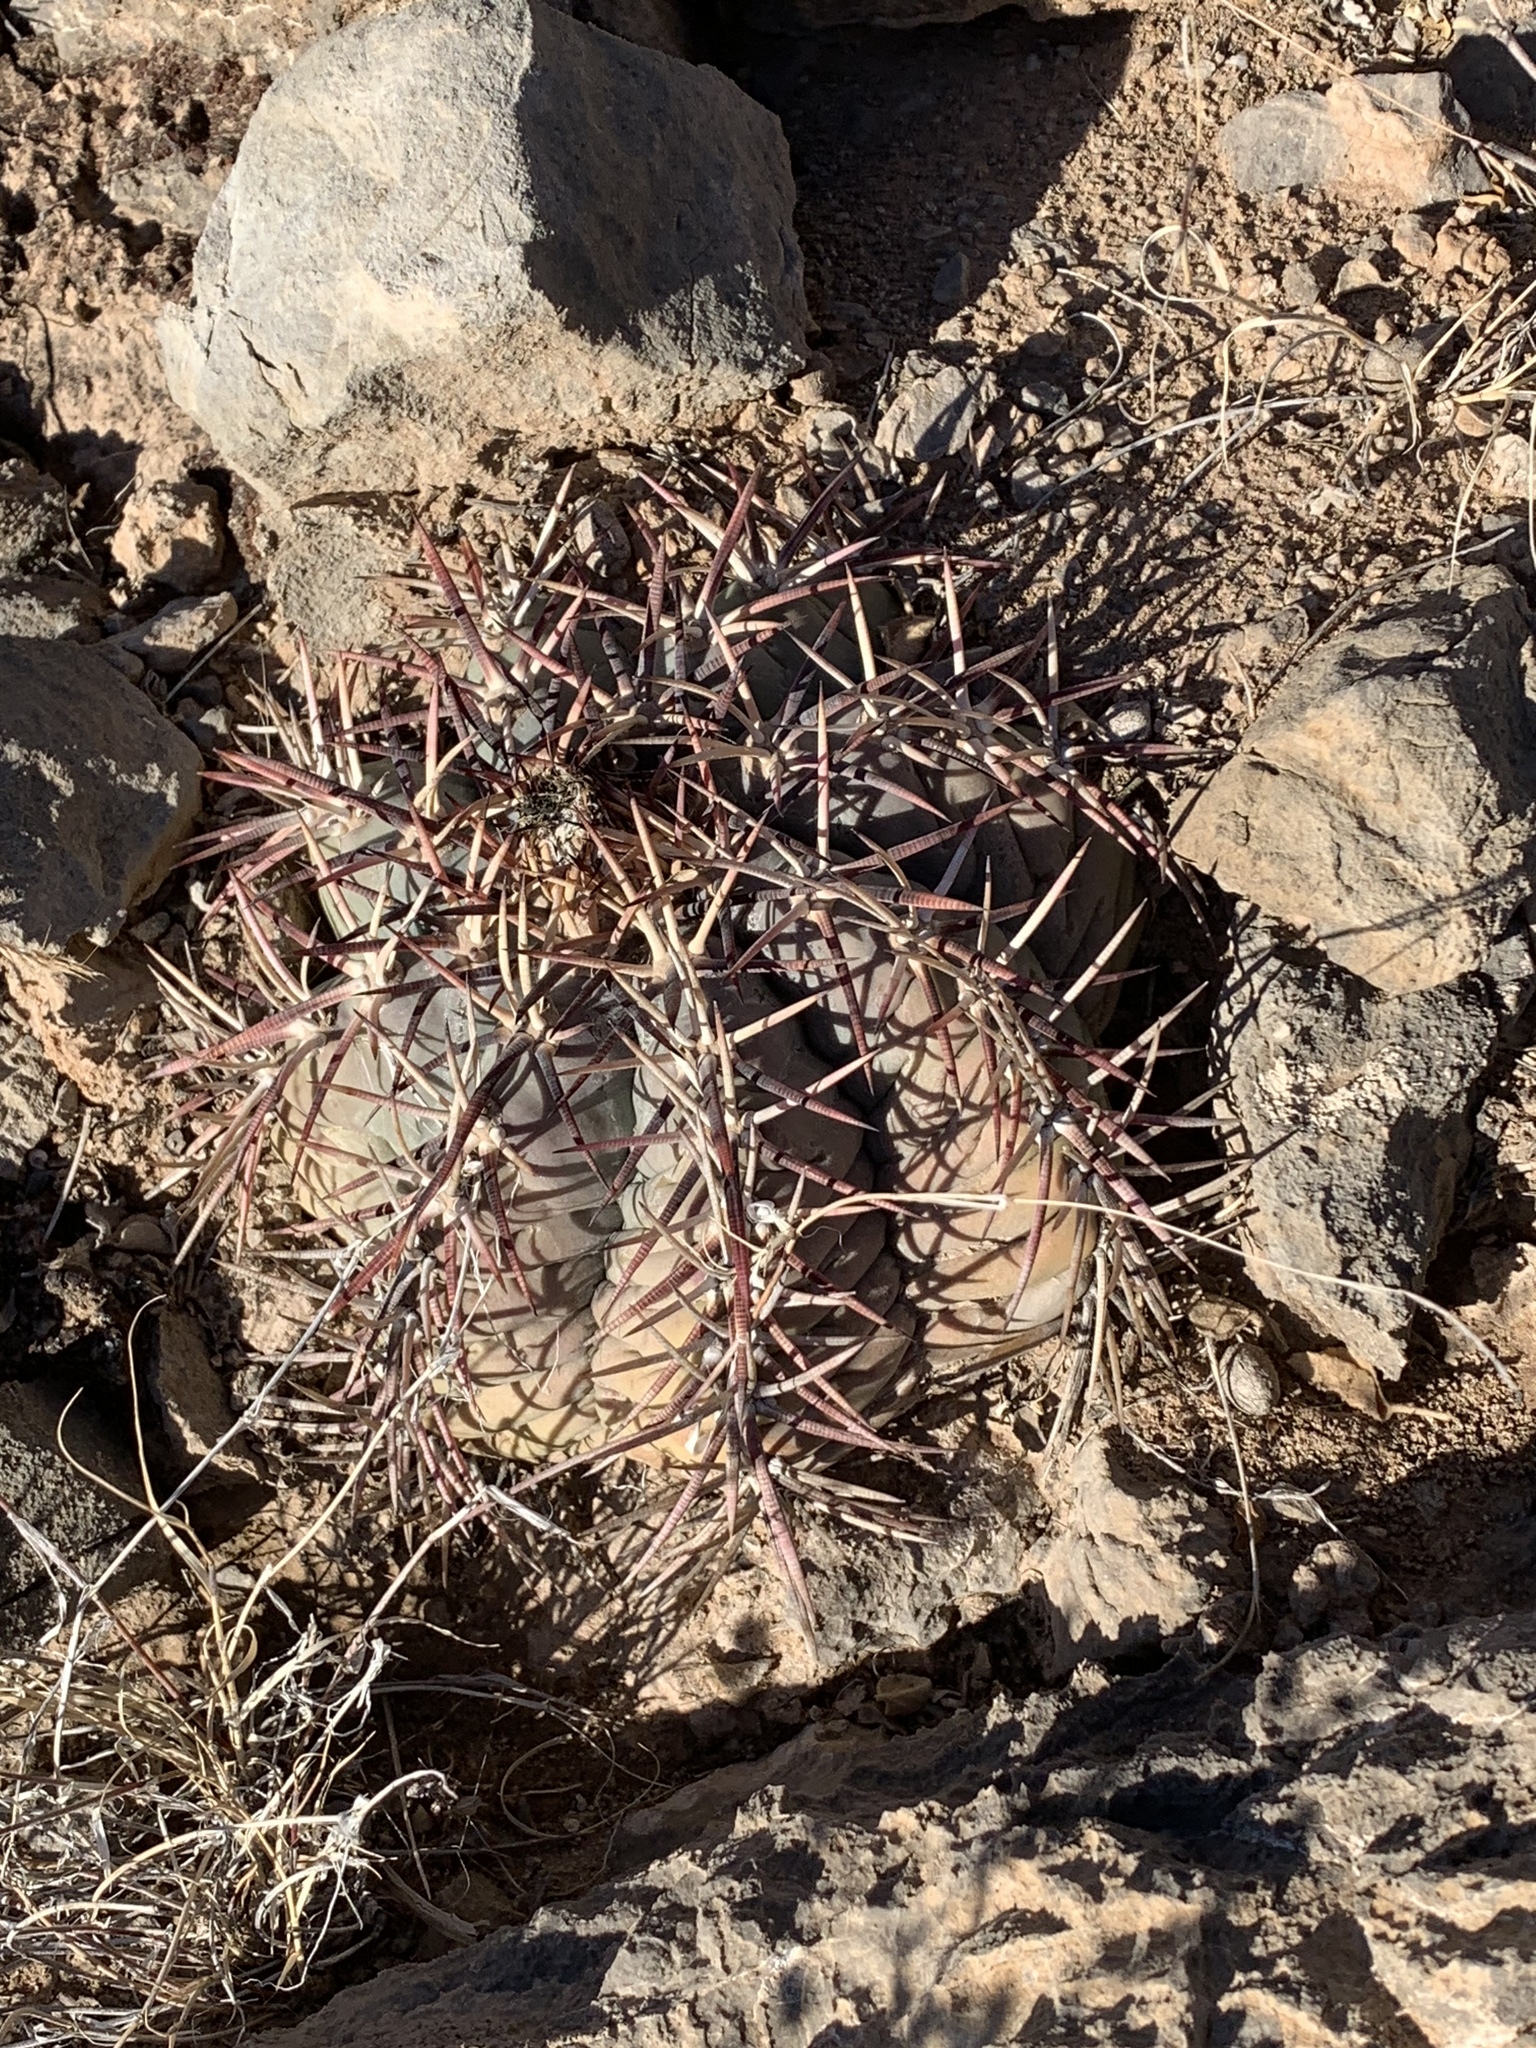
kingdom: Plantae
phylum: Tracheophyta
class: Magnoliopsida
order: Caryophyllales
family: Cactaceae
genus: Echinocactus
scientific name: Echinocactus horizonthalonius
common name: Devilshead
